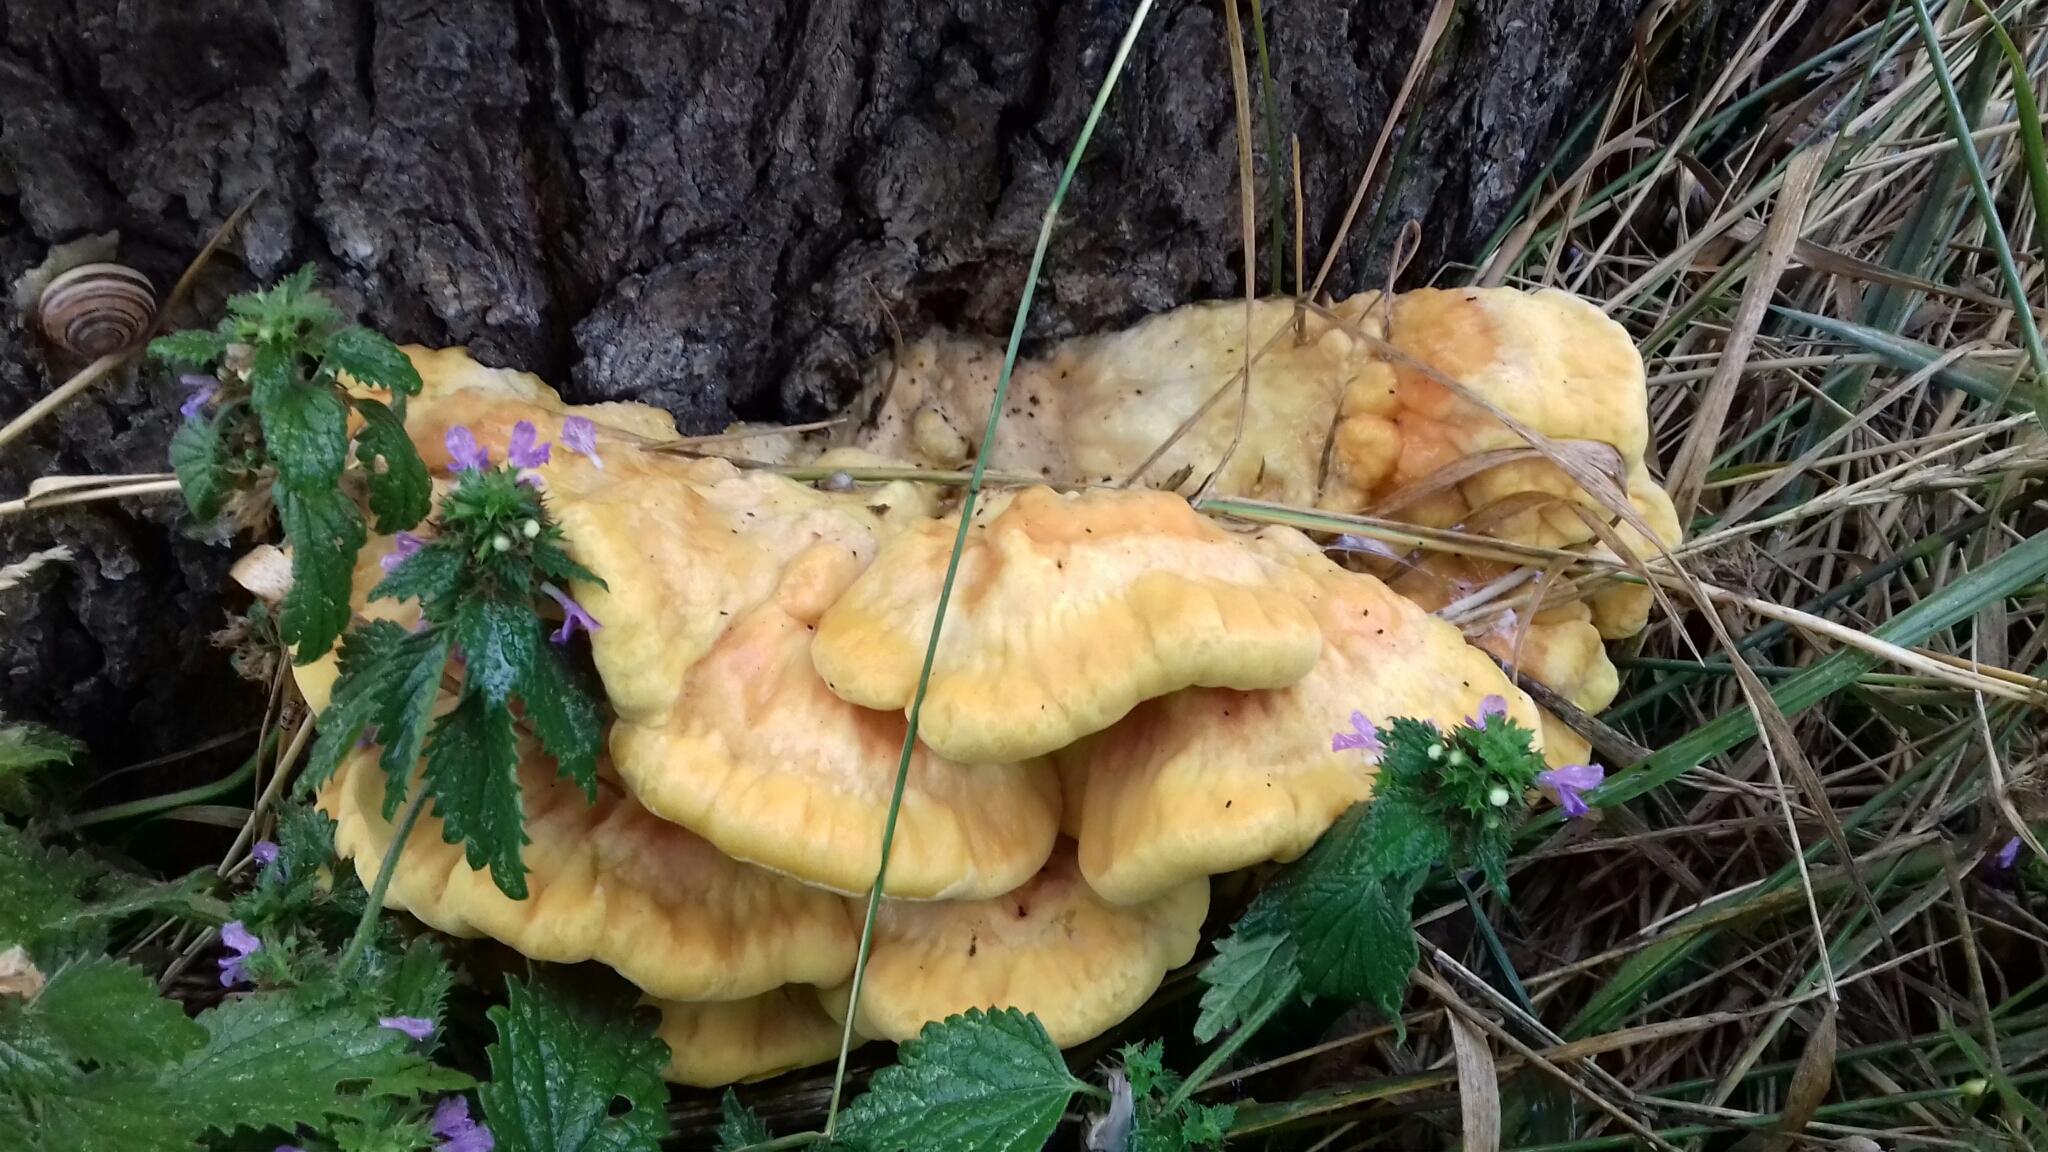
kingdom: Fungi
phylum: Basidiomycota
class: Agaricomycetes
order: Polyporales
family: Laetiporaceae
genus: Laetiporus
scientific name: Laetiporus sulphureus
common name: Chicken of the woods
